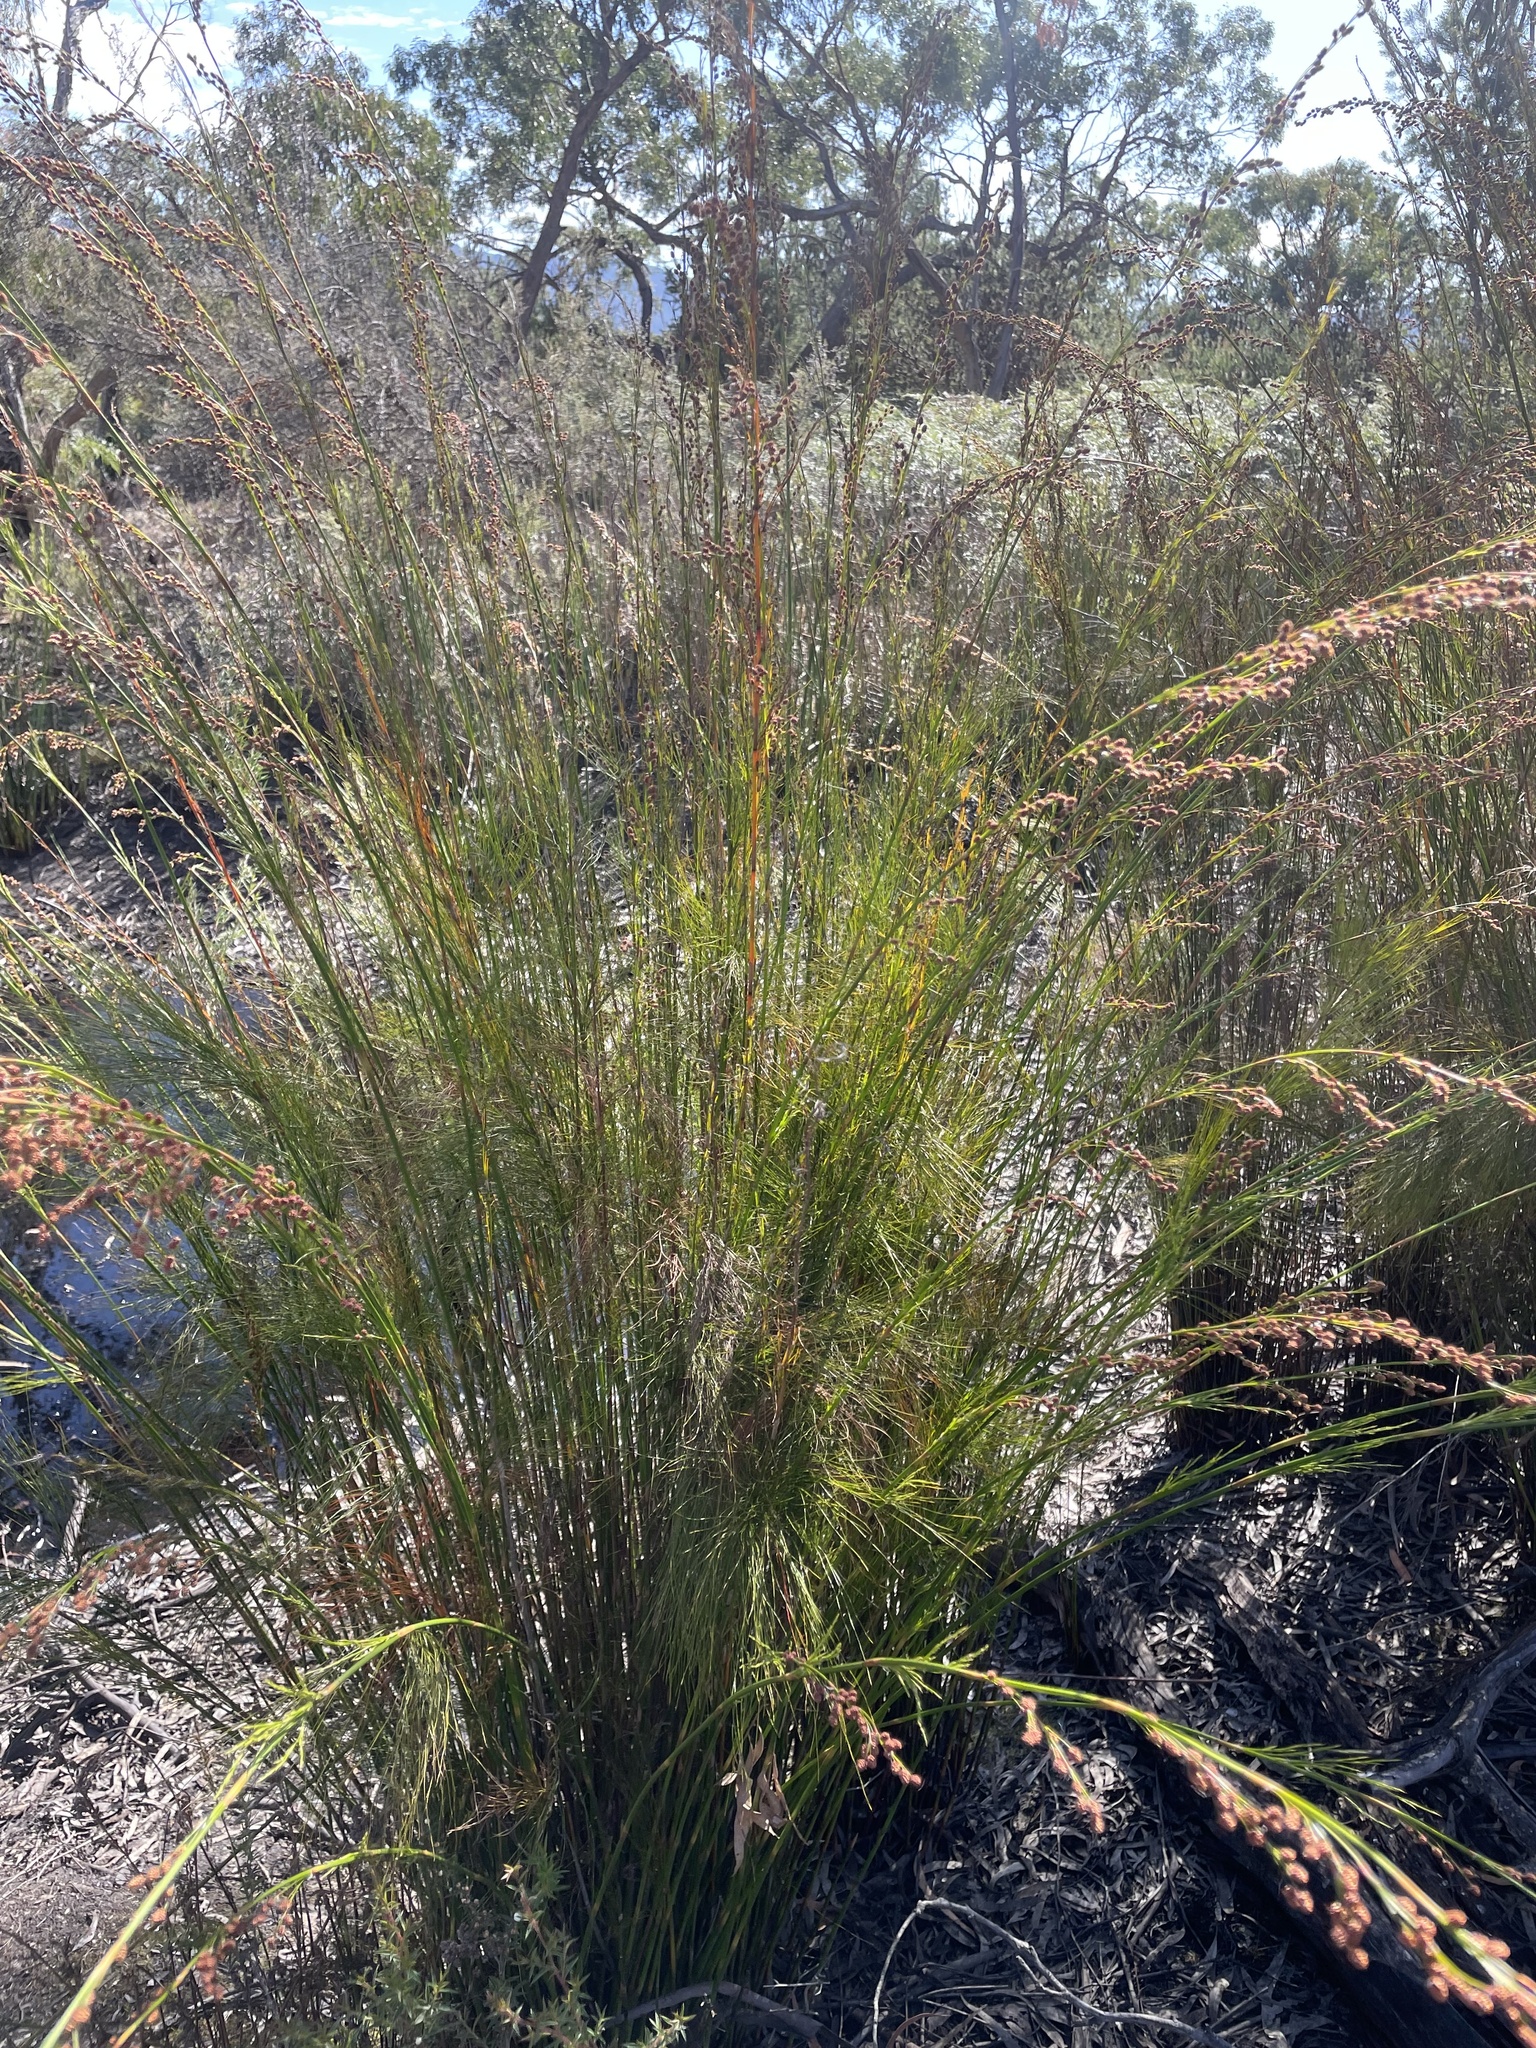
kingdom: Plantae
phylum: Tracheophyta
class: Liliopsida
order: Poales
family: Restionaceae
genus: Baloskion
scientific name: Baloskion tetraphyllum
